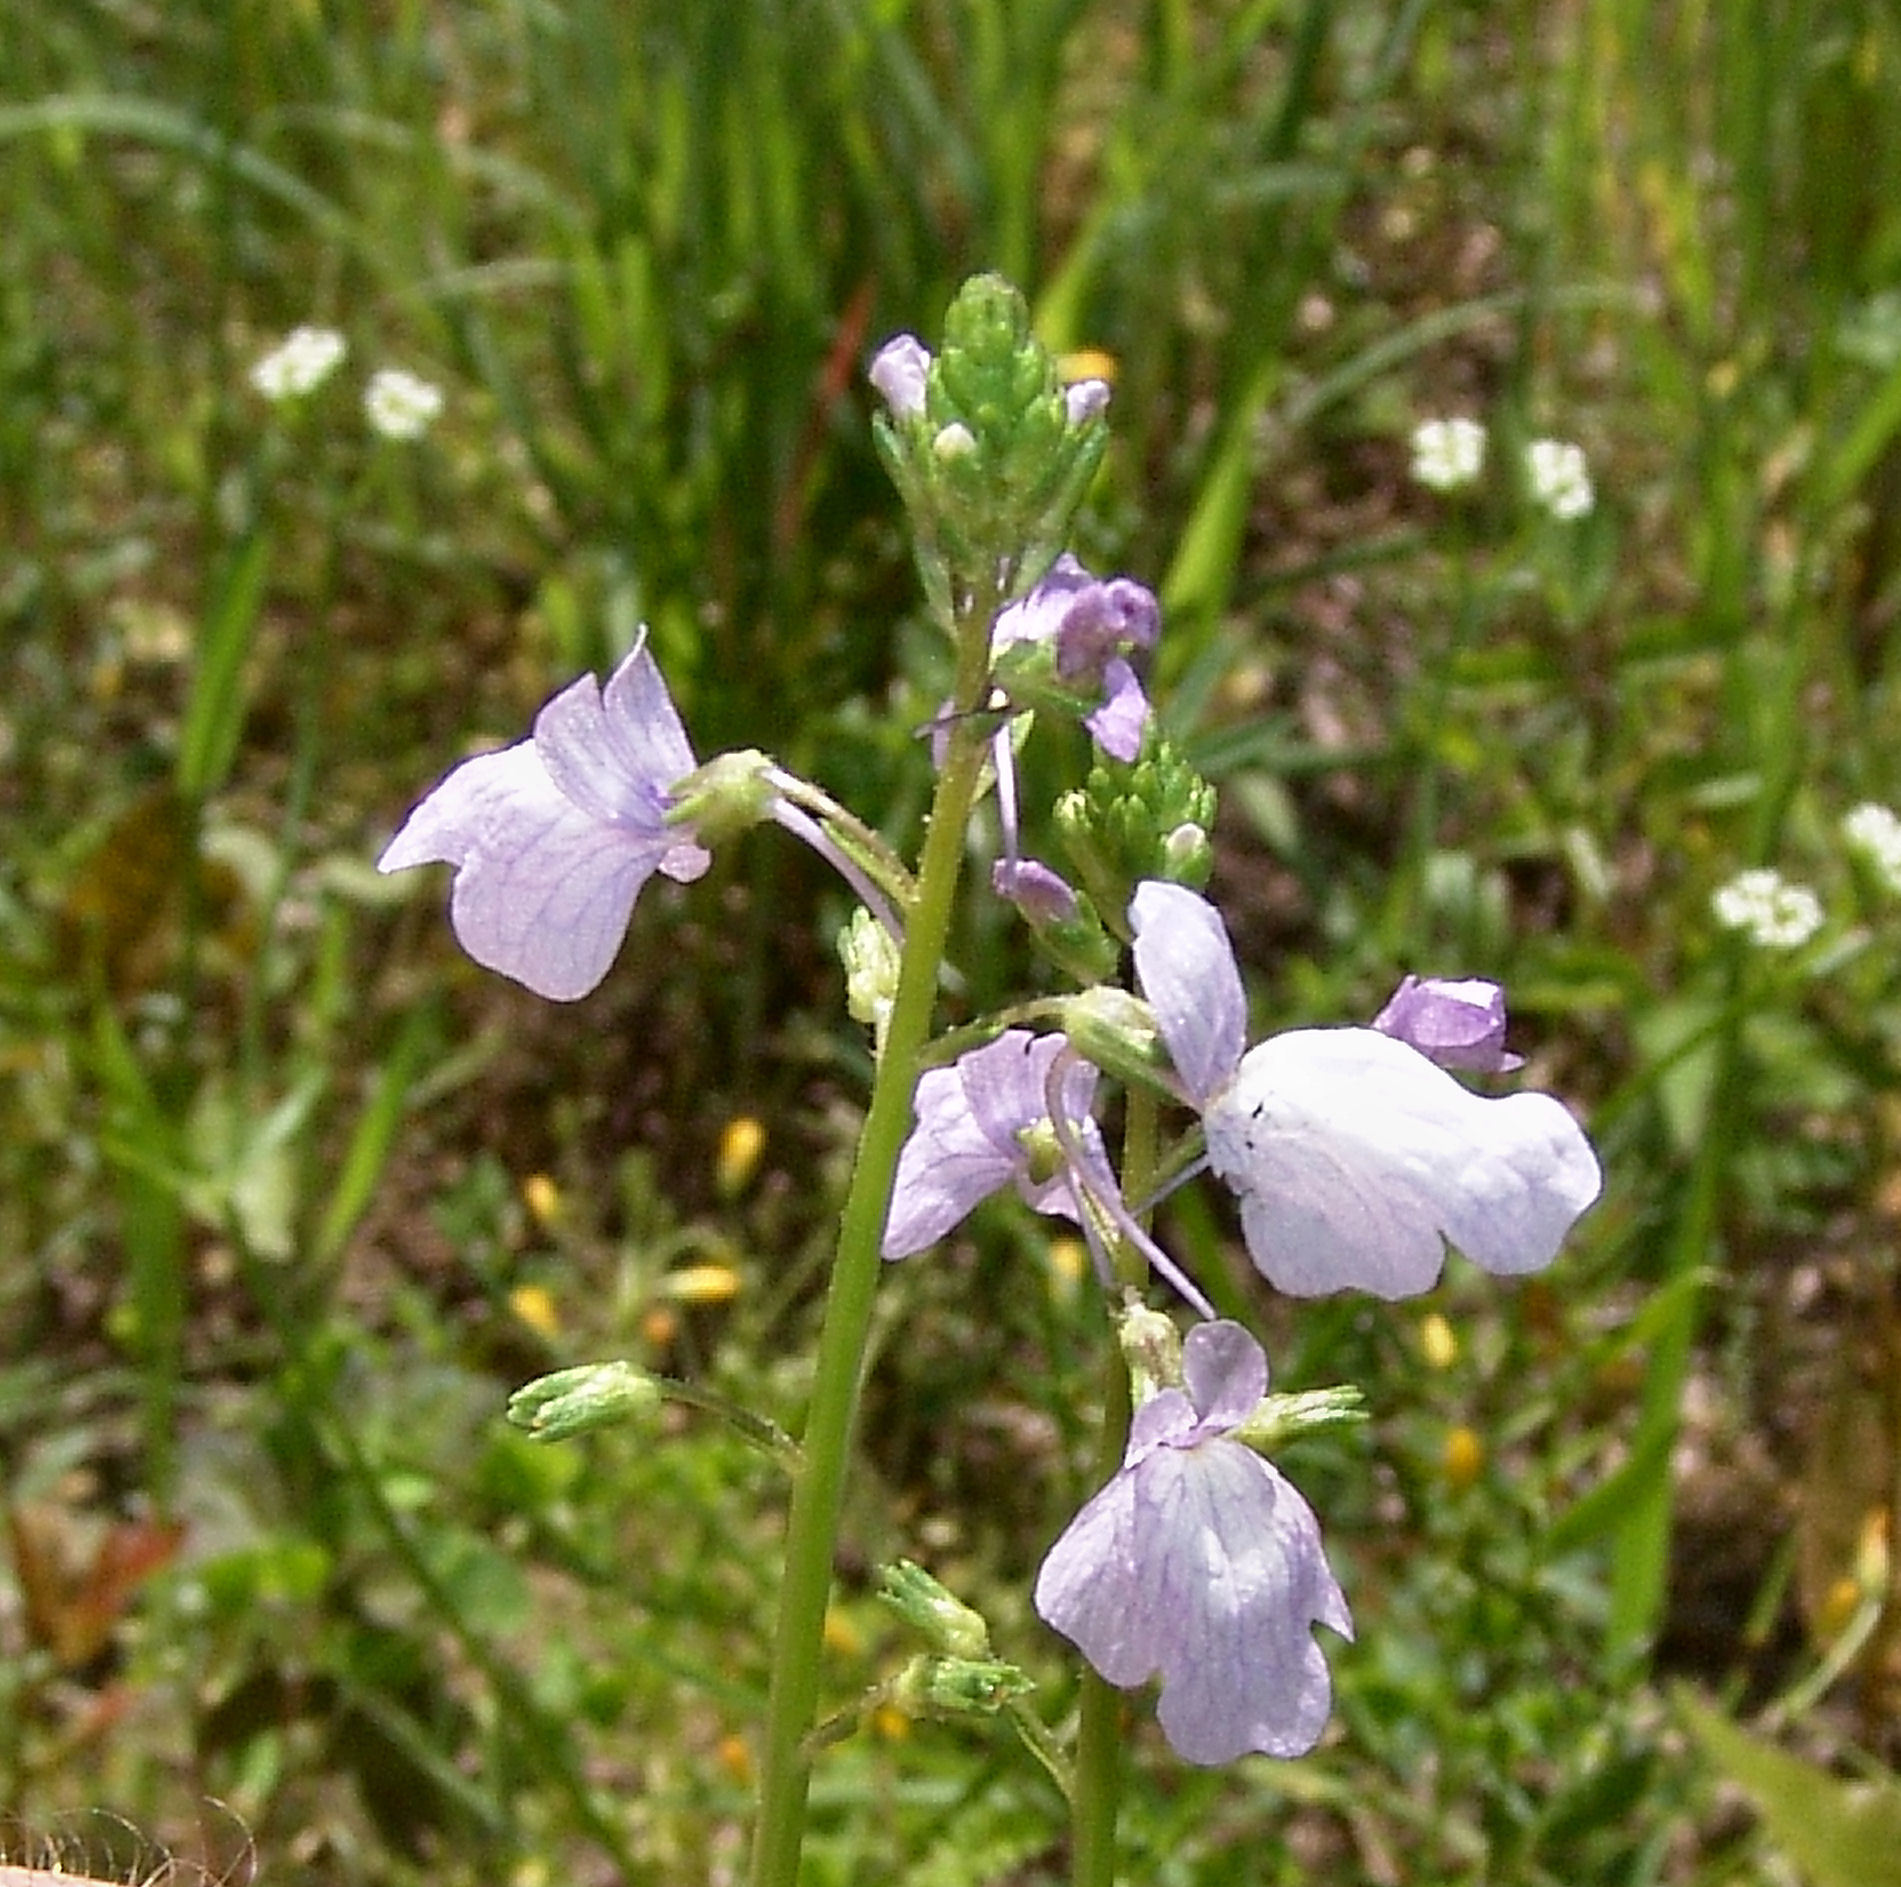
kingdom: Plantae
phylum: Tracheophyta
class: Magnoliopsida
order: Lamiales
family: Plantaginaceae
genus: Nuttallanthus
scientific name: Nuttallanthus texanus
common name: Texas toadflax
